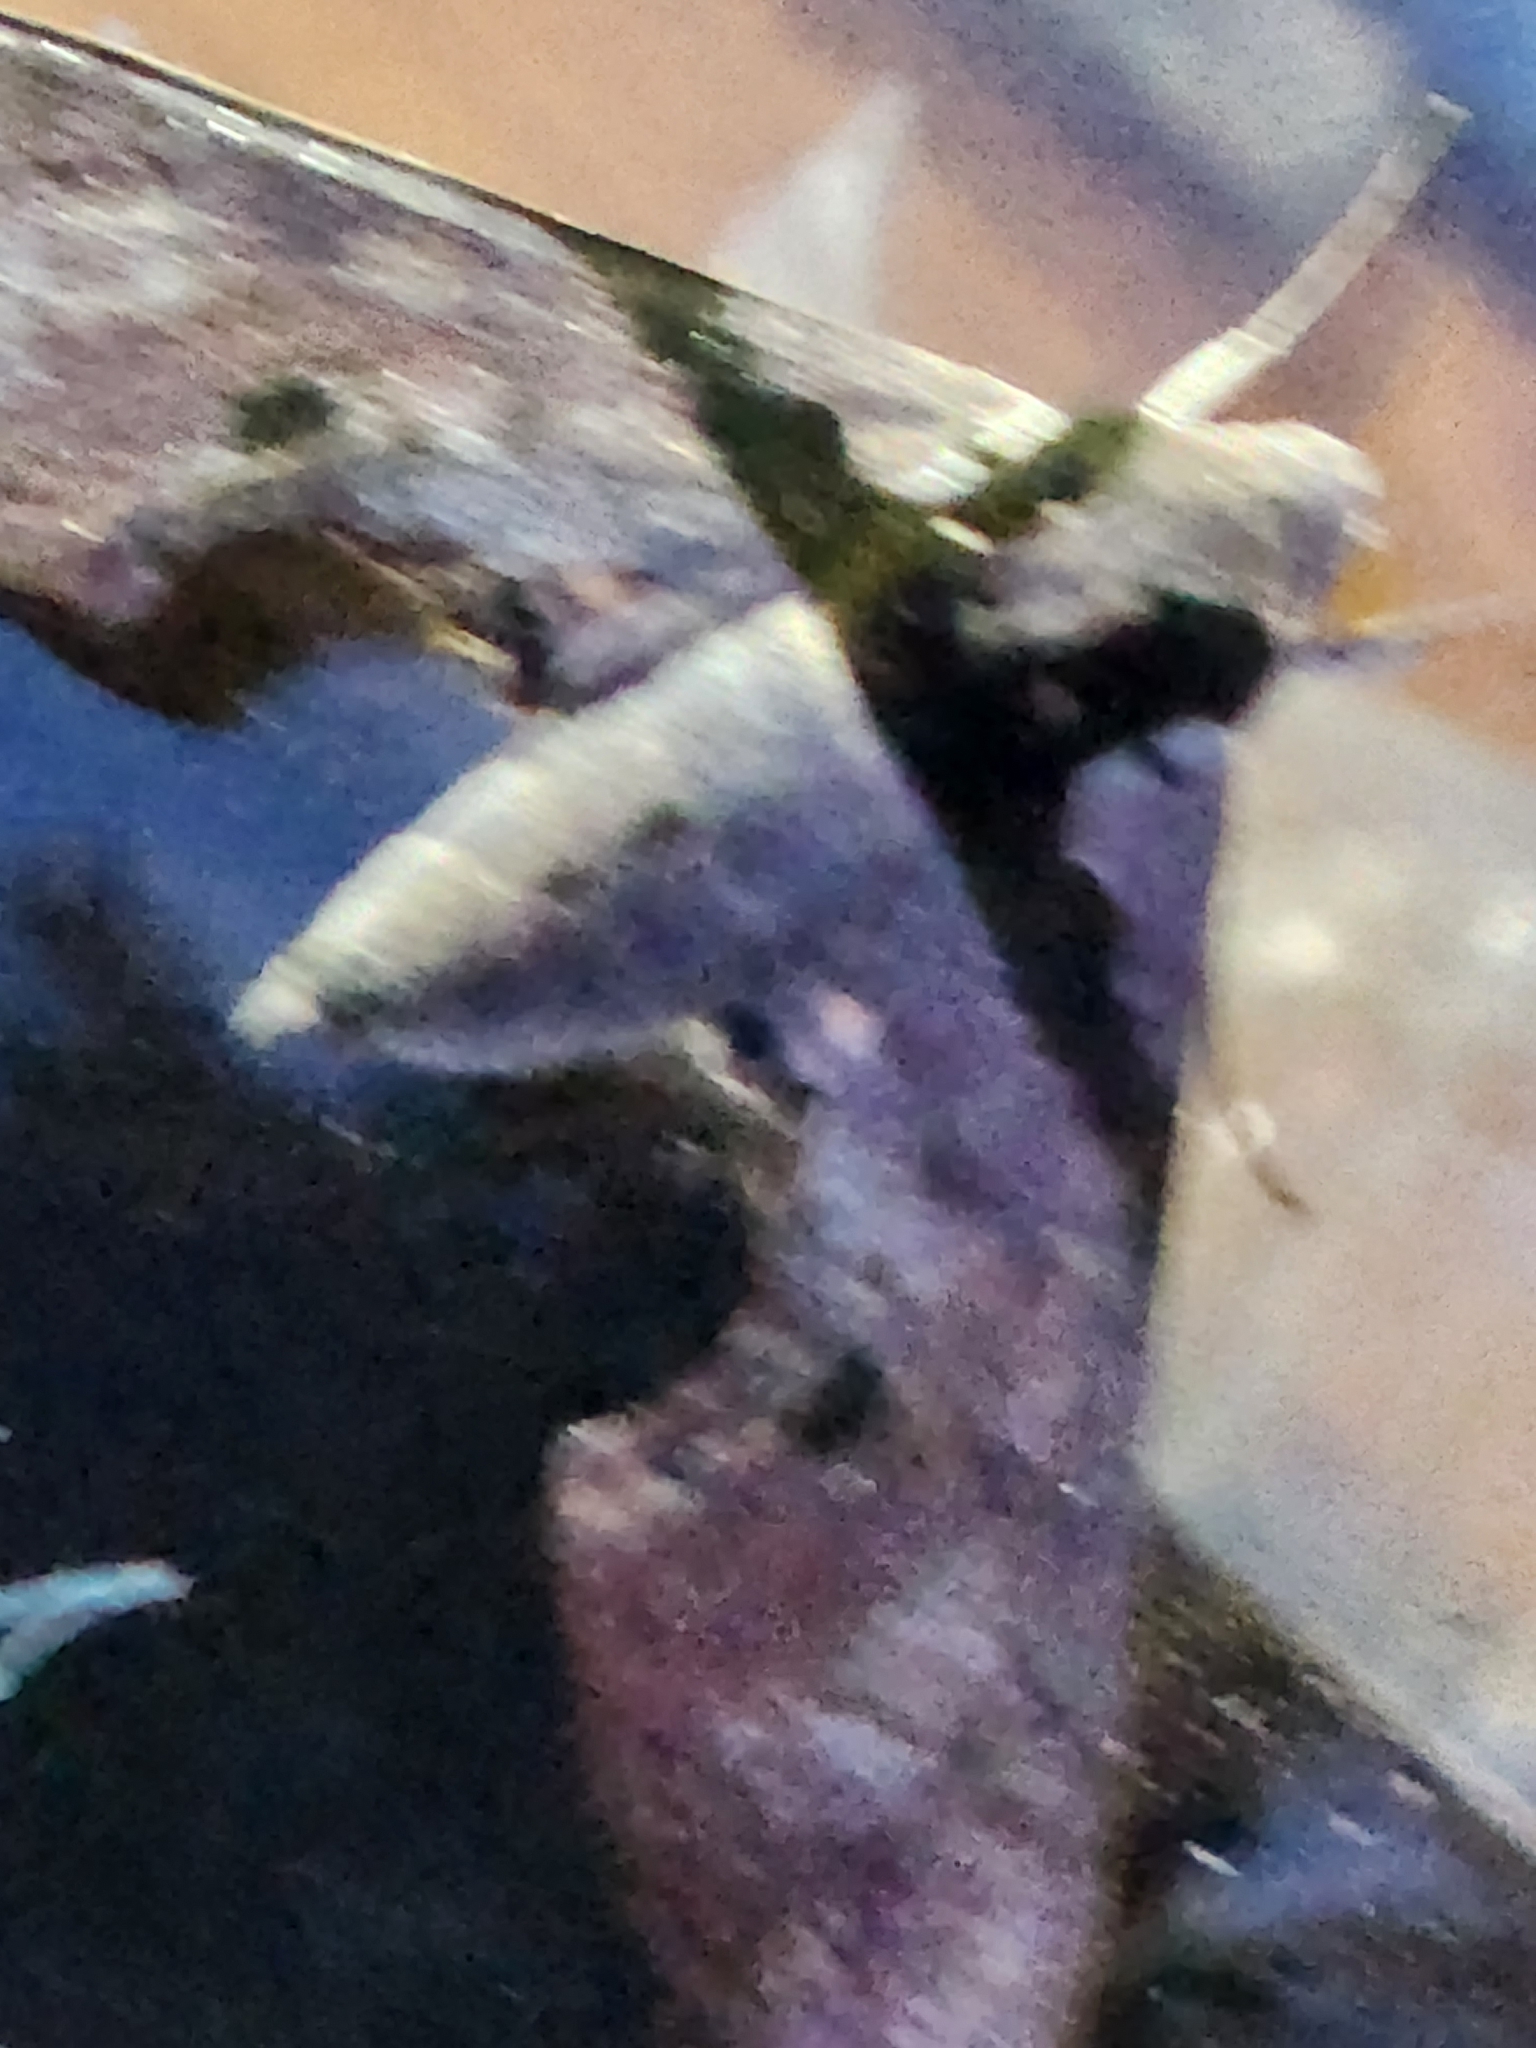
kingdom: Animalia
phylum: Arthropoda
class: Insecta
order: Lepidoptera
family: Sphingidae
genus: Adhemarius
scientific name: Adhemarius gannascus
